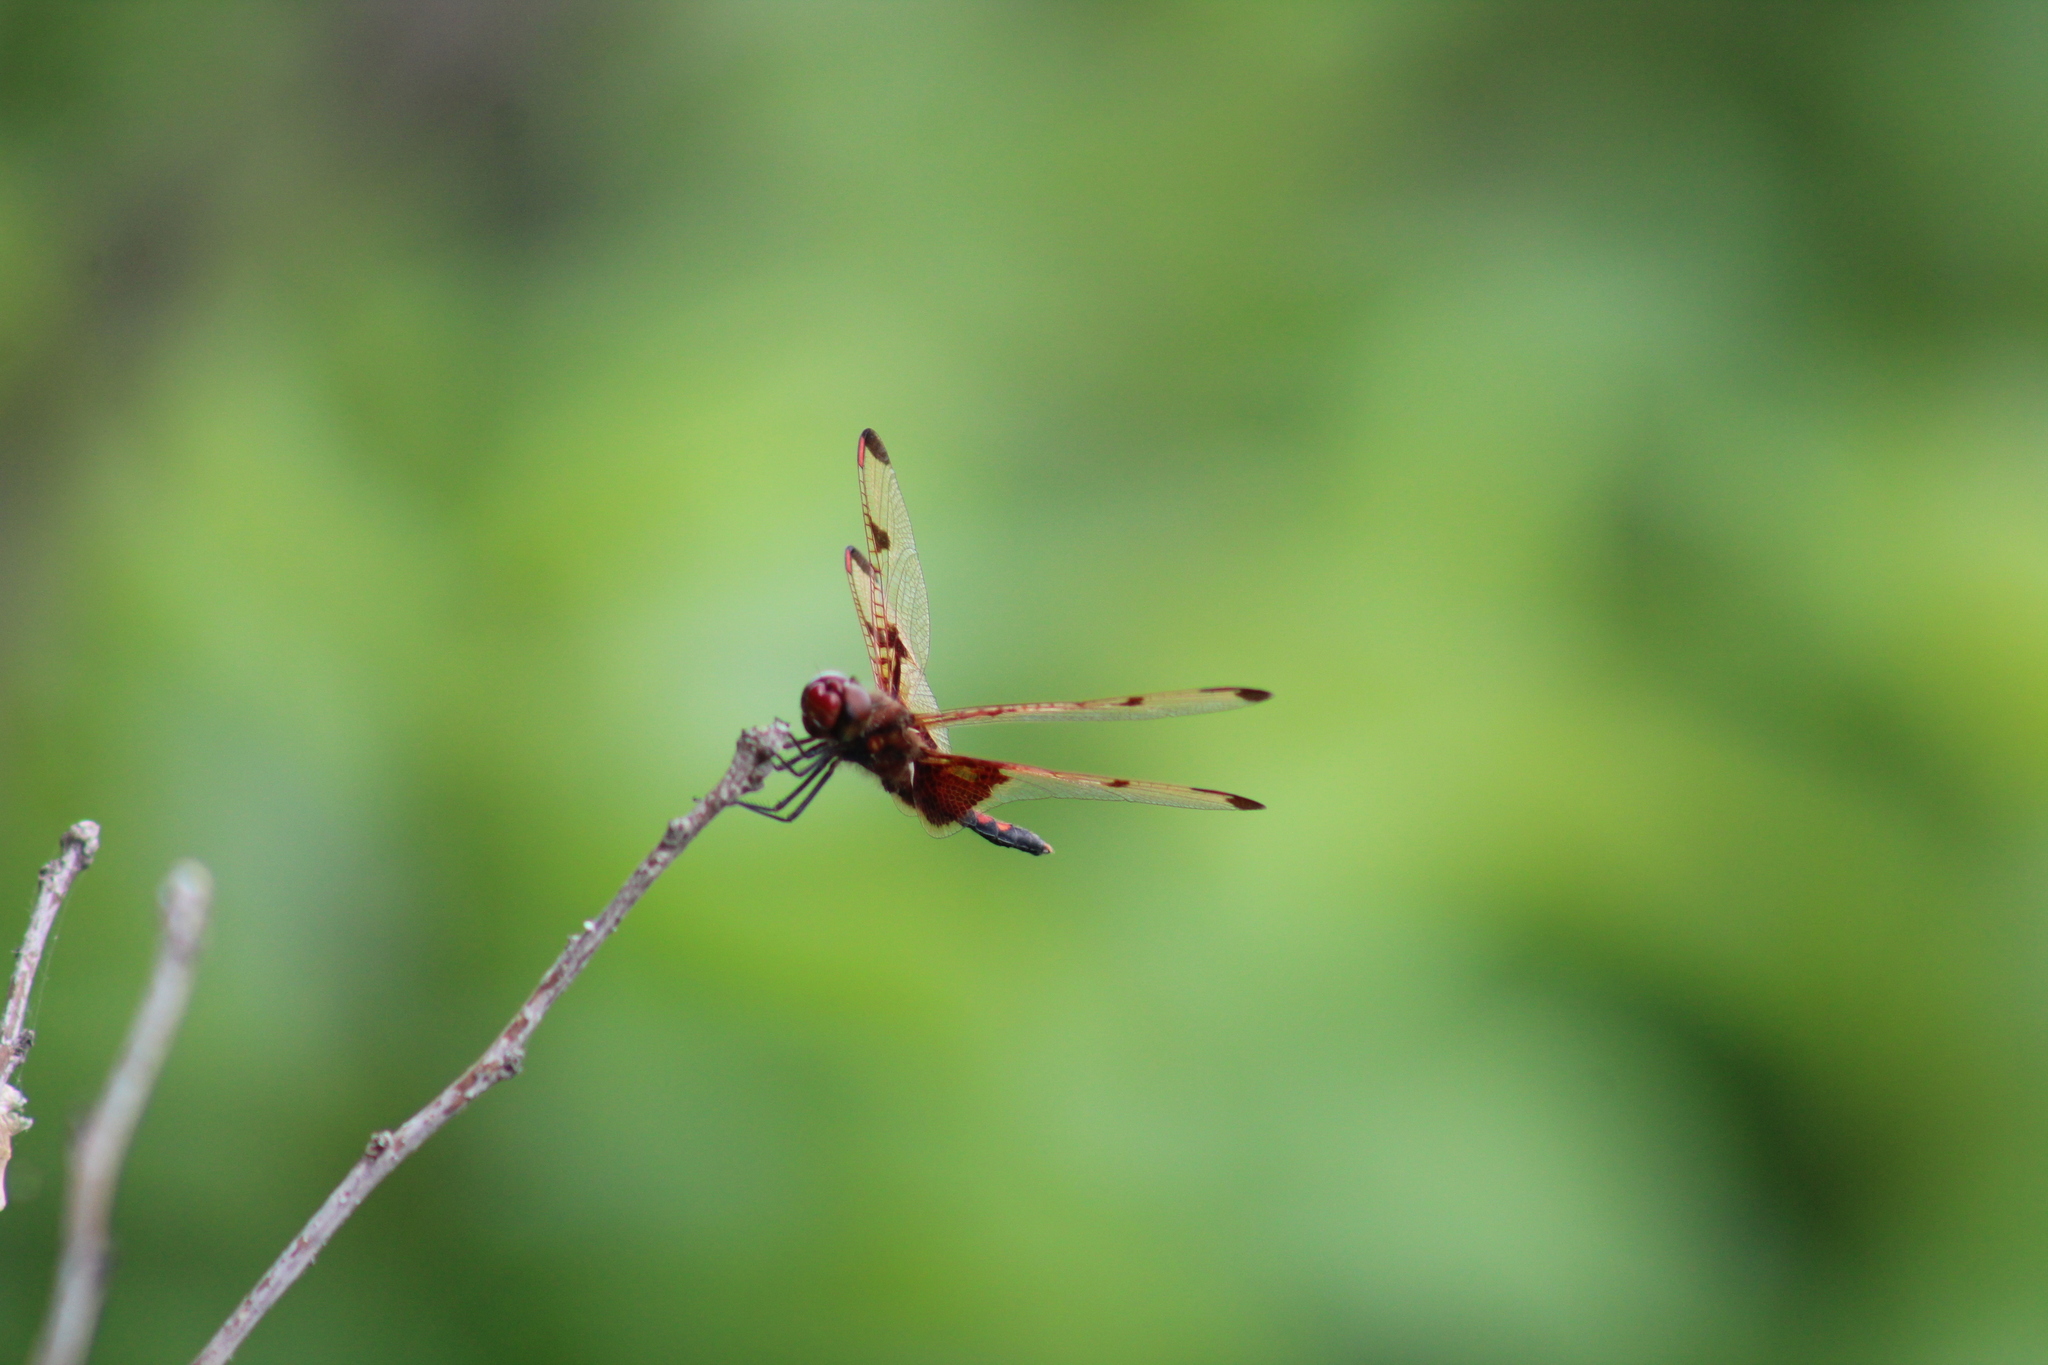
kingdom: Animalia
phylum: Arthropoda
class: Insecta
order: Odonata
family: Libellulidae
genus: Celithemis
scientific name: Celithemis elisa
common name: Calico pennant
